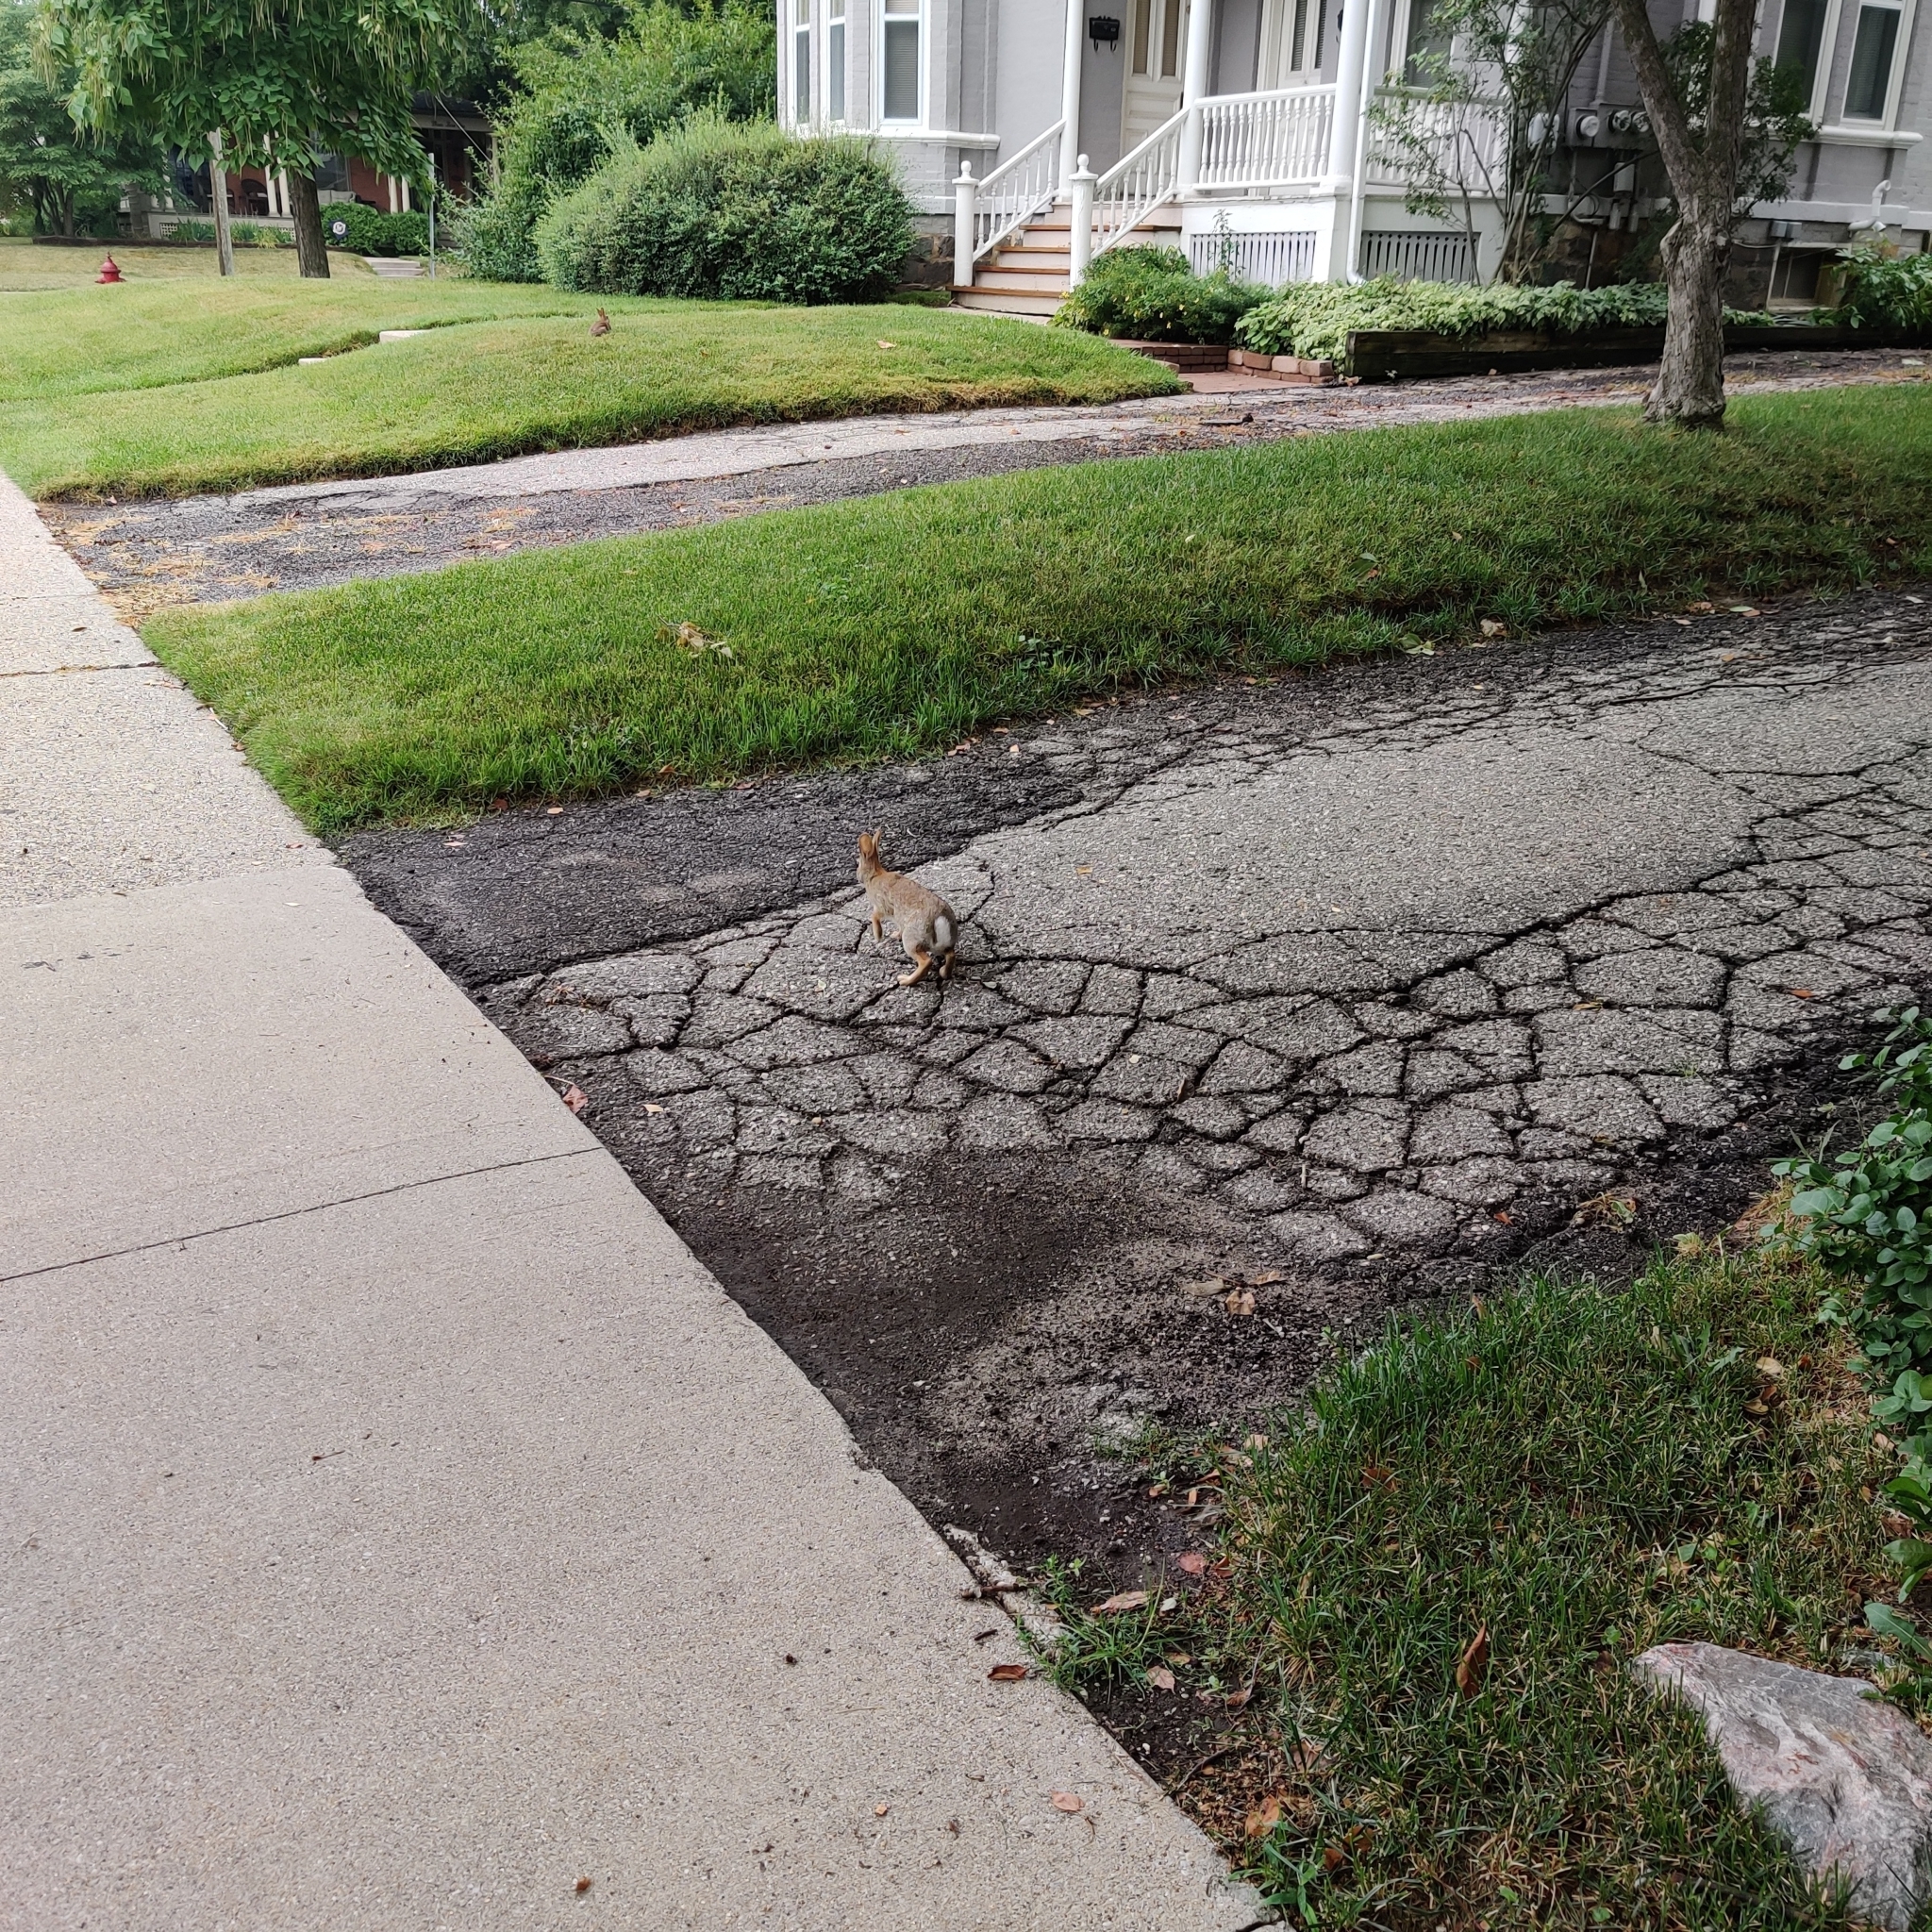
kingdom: Animalia
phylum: Chordata
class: Mammalia
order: Lagomorpha
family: Leporidae
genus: Sylvilagus
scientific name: Sylvilagus floridanus
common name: Eastern cottontail
